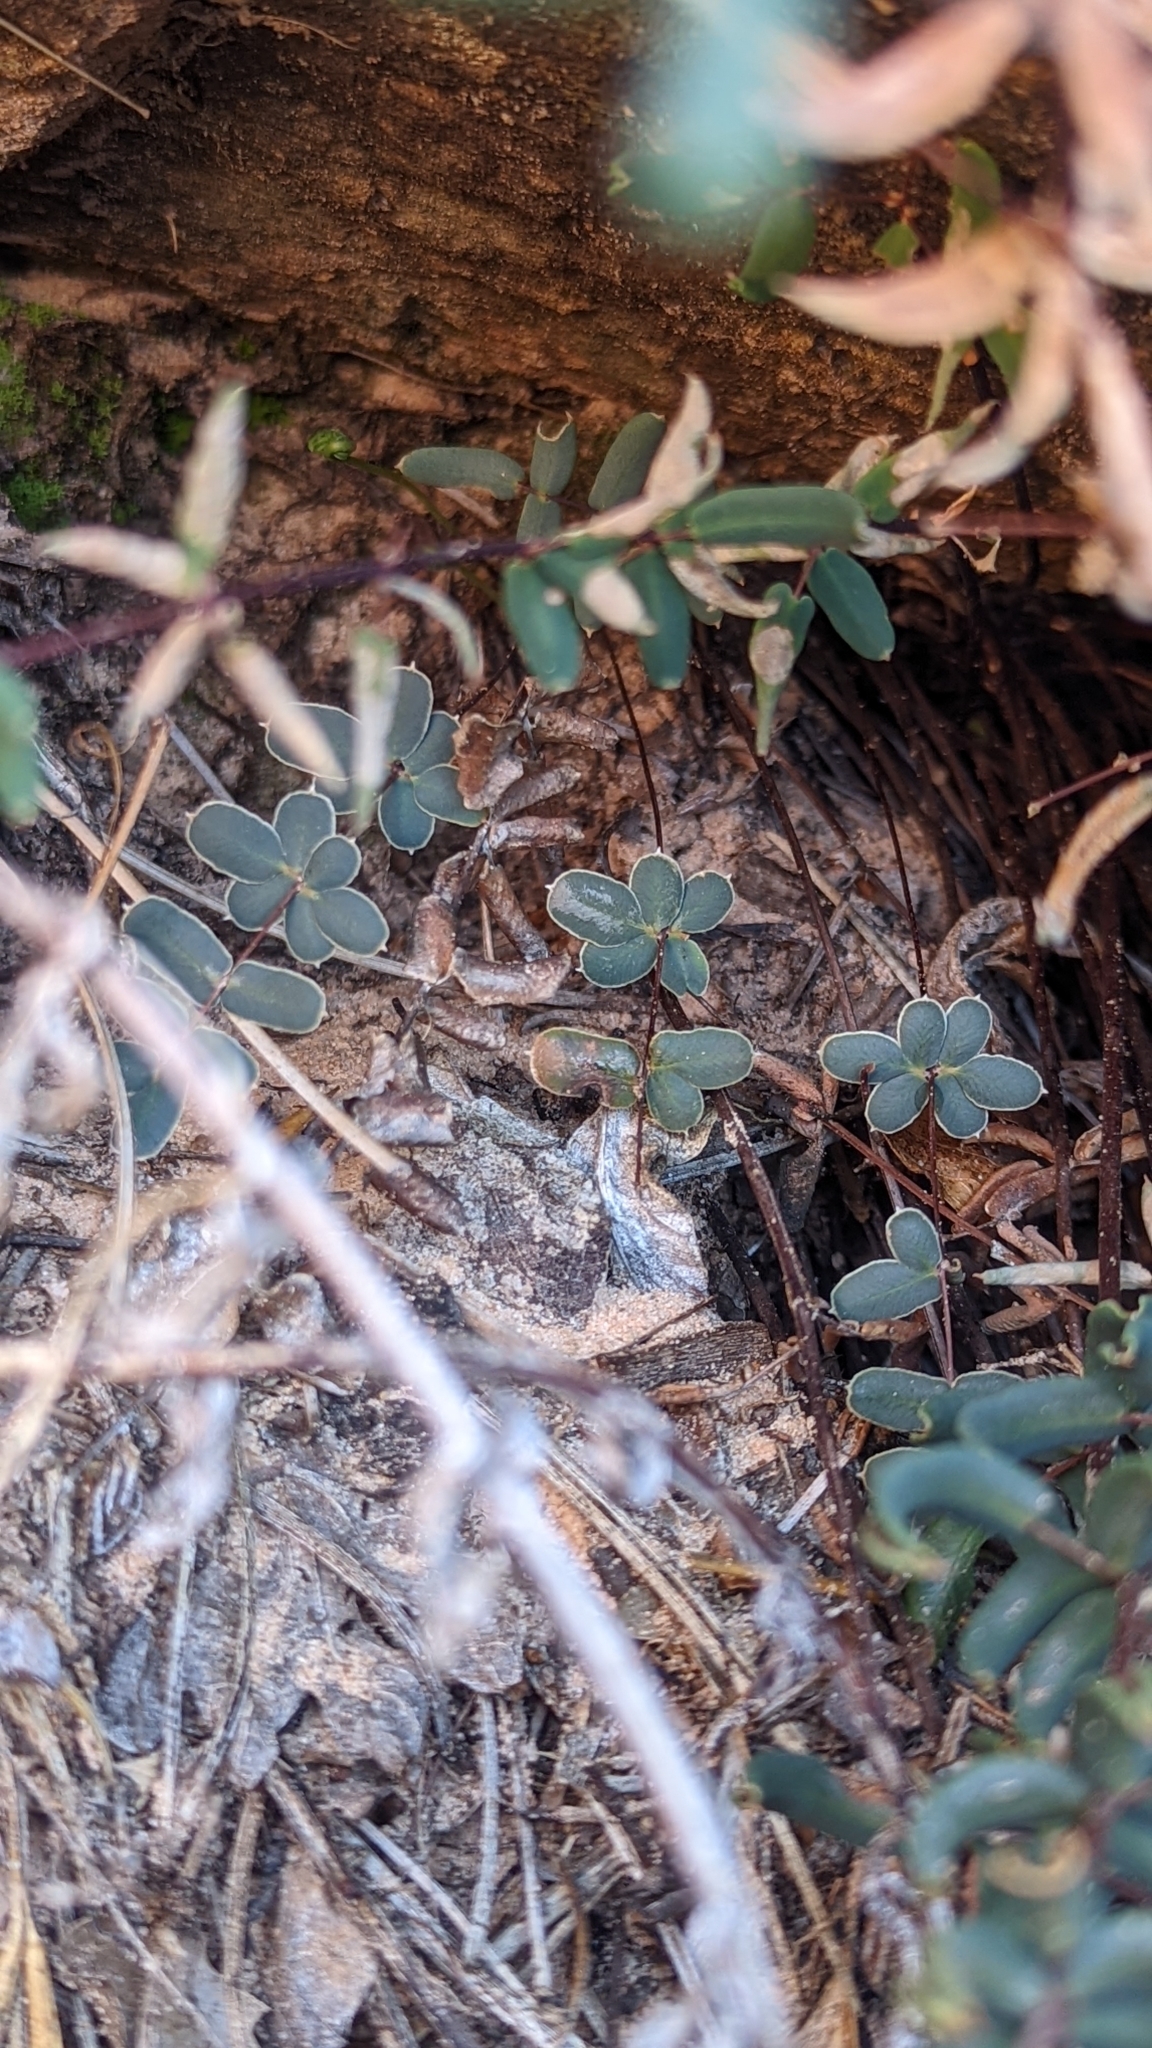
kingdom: Plantae
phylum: Tracheophyta
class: Polypodiopsida
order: Polypodiales
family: Pteridaceae
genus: Pellaea
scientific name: Pellaea wrightiana
